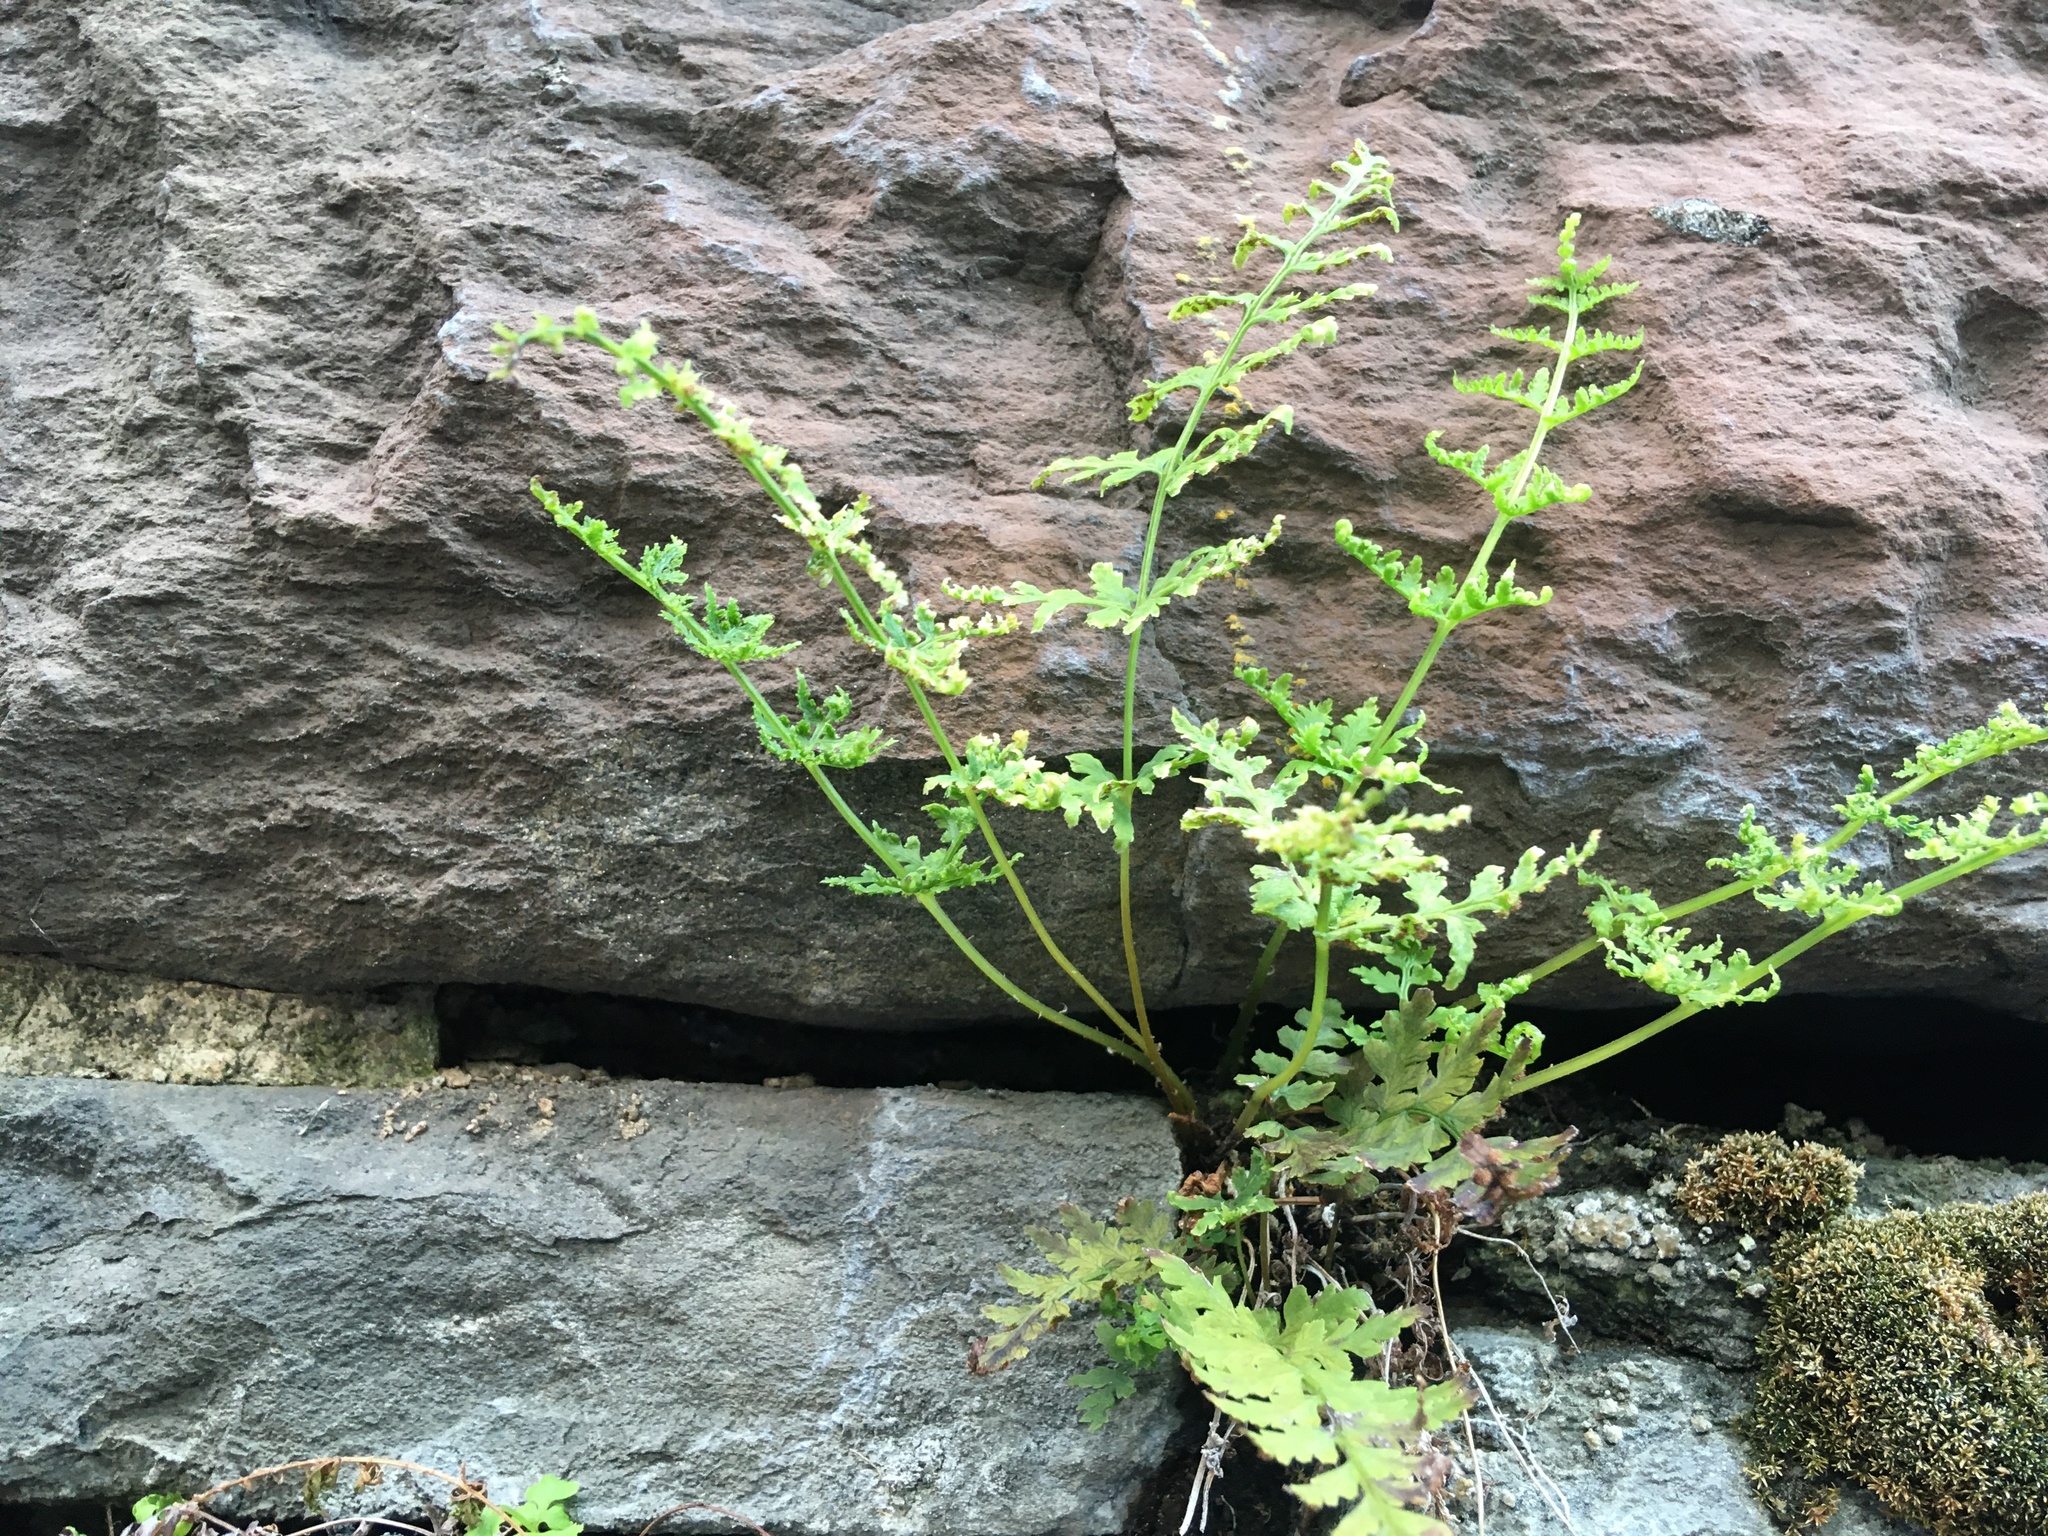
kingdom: Plantae
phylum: Tracheophyta
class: Polypodiopsida
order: Polypodiales
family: Woodsiaceae
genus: Physematium
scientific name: Physematium obtusum
